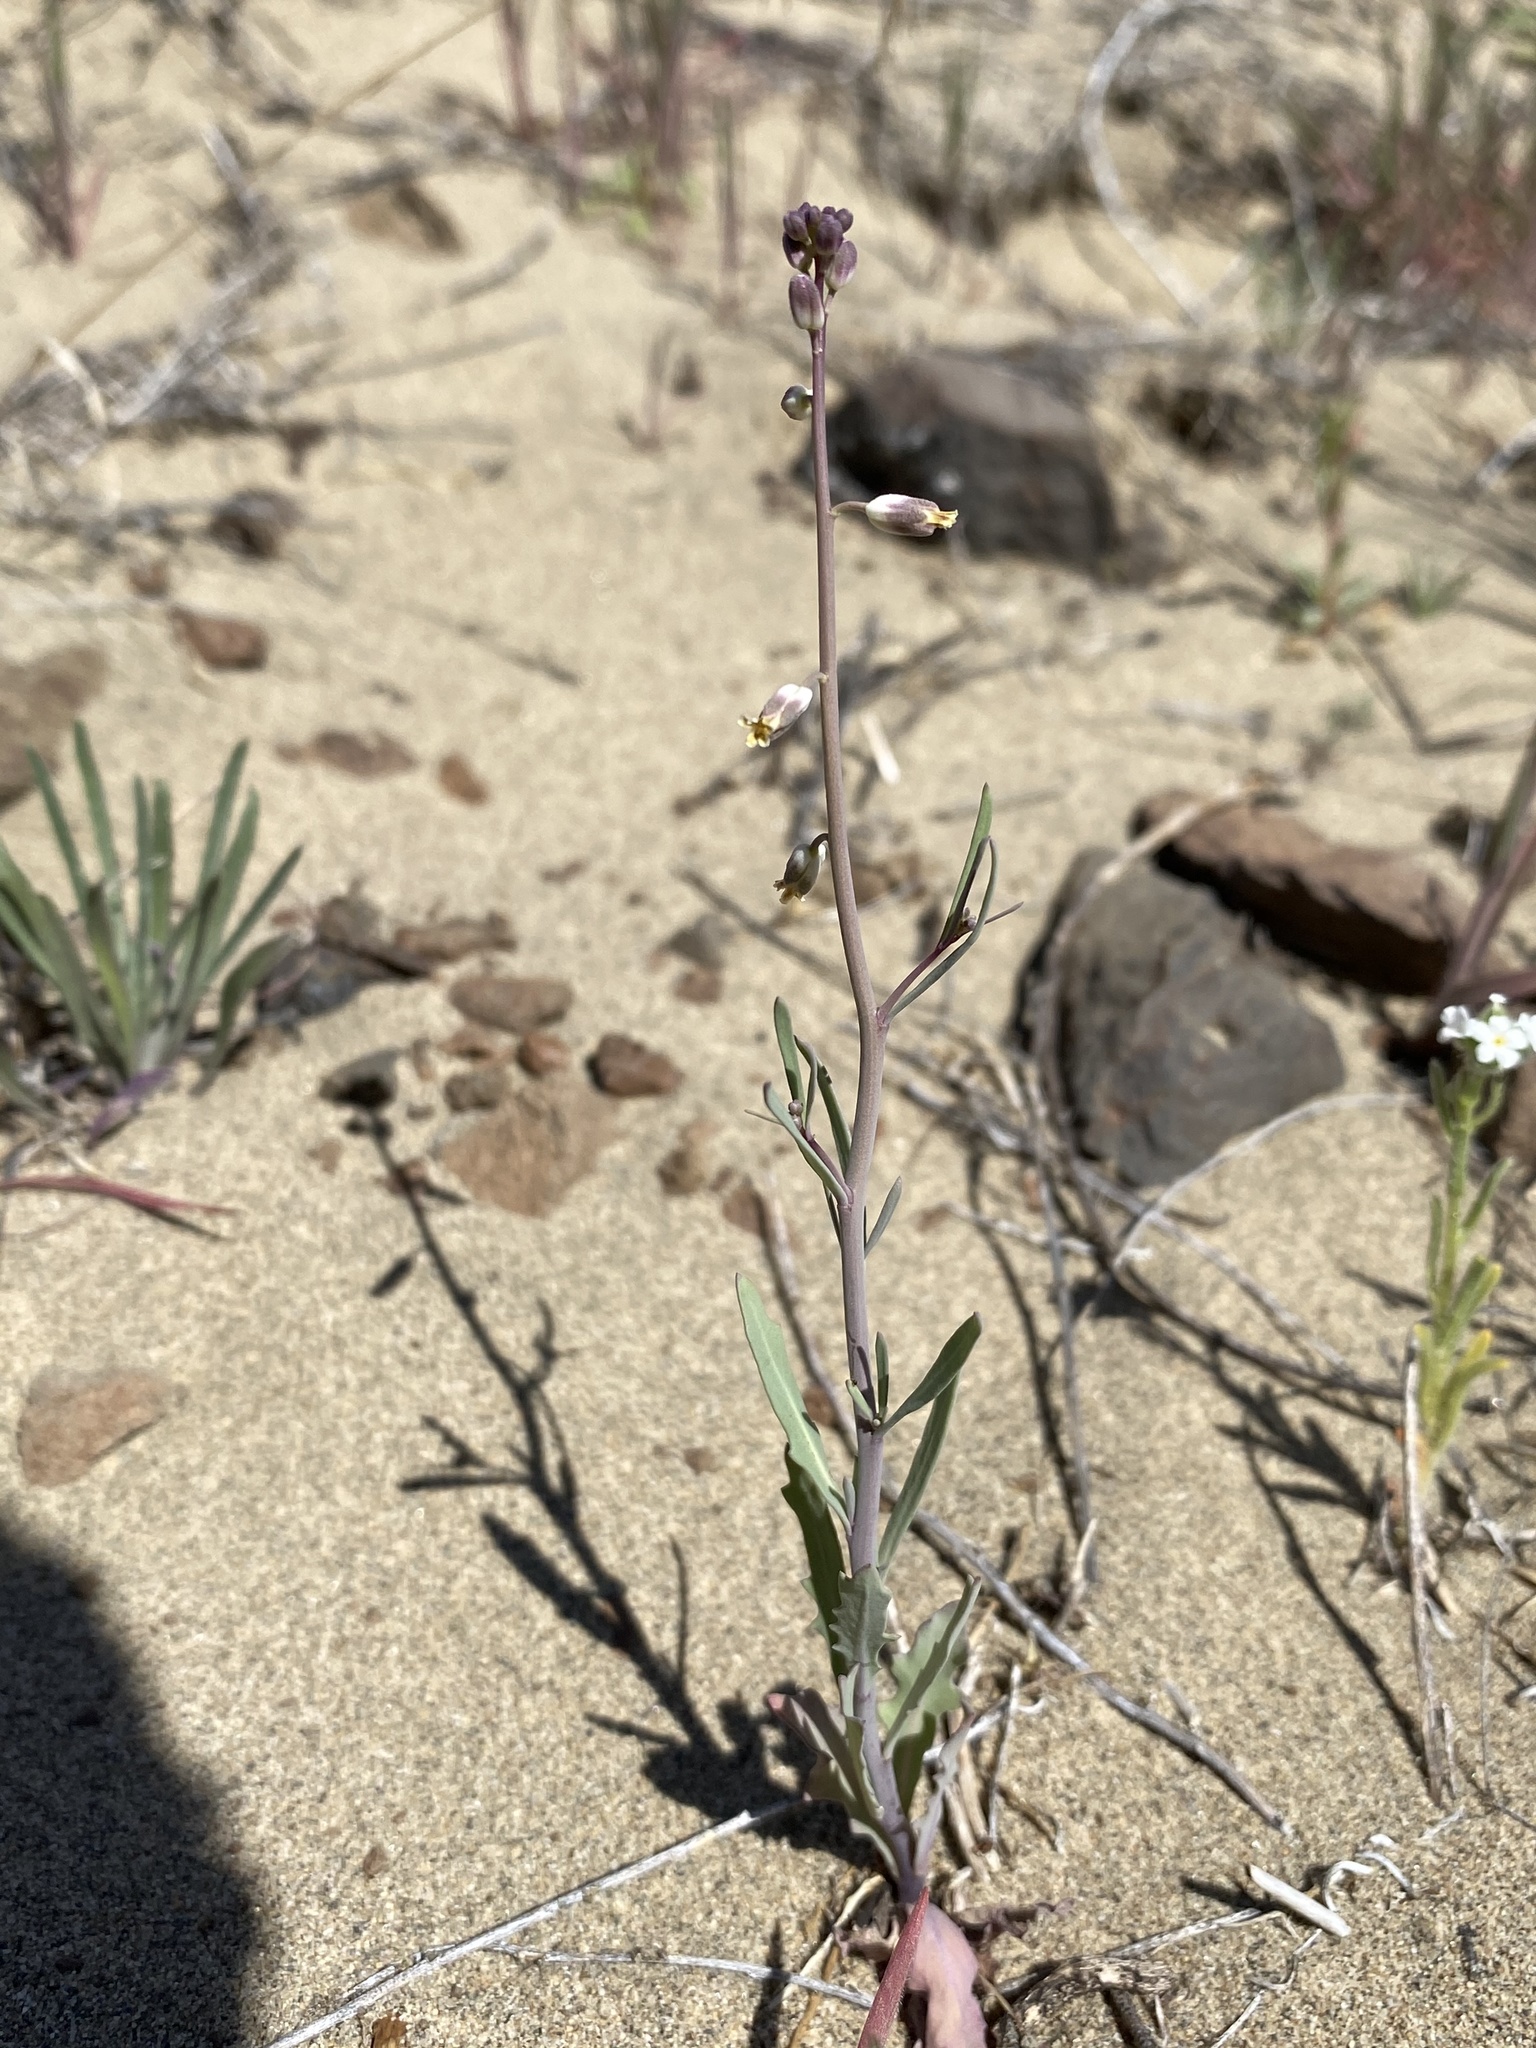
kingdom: Plantae
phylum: Tracheophyta
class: Magnoliopsida
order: Brassicales
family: Brassicaceae
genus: Streptanthus
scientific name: Streptanthus longirostris
